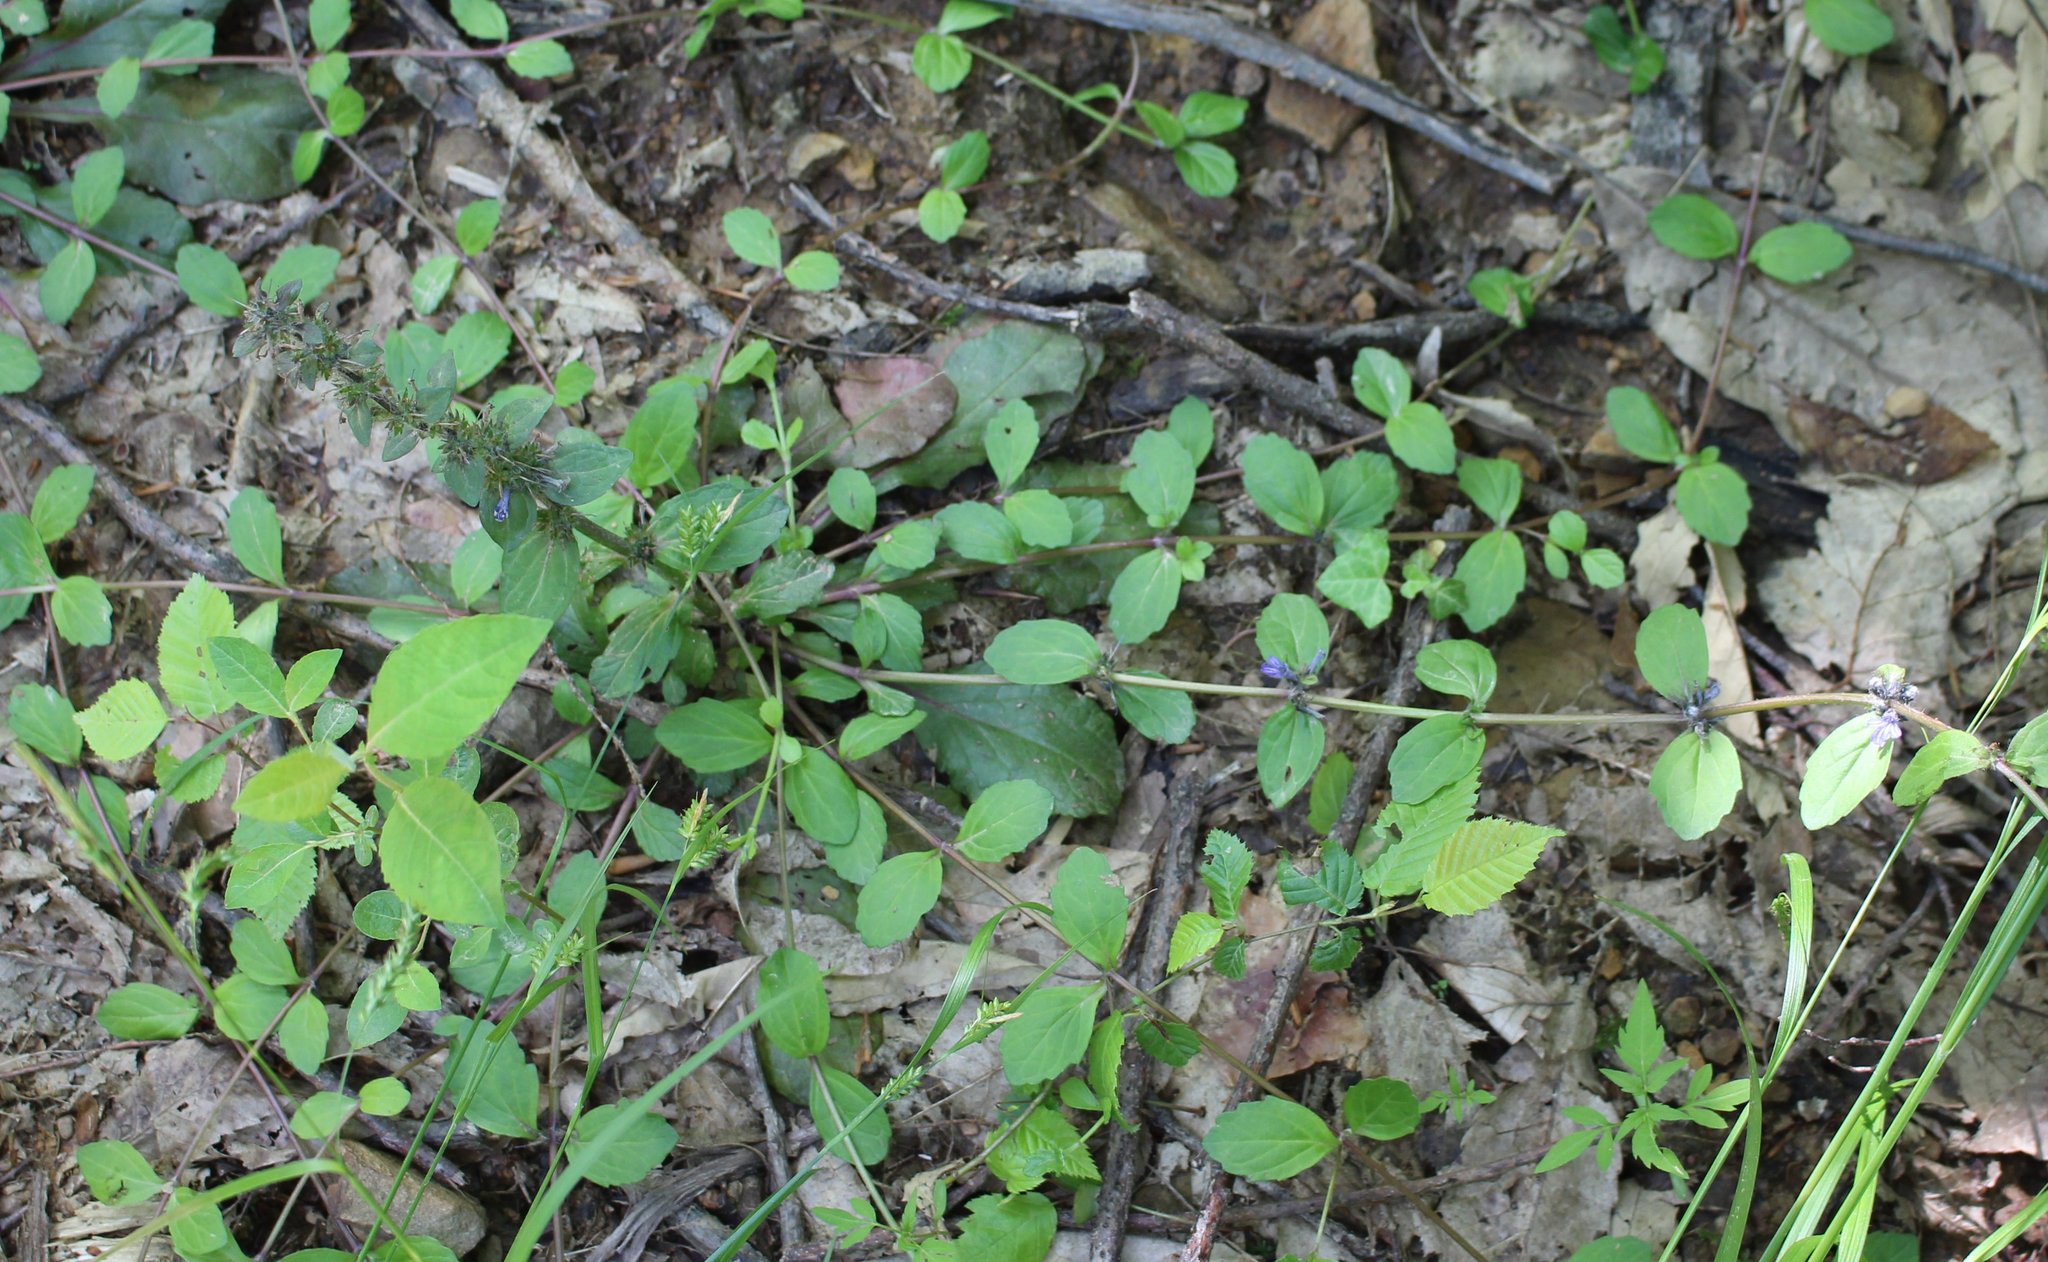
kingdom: Plantae
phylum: Tracheophyta
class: Magnoliopsida
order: Lamiales
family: Lamiaceae
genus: Ajuga
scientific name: Ajuga reptans
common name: Bugle
